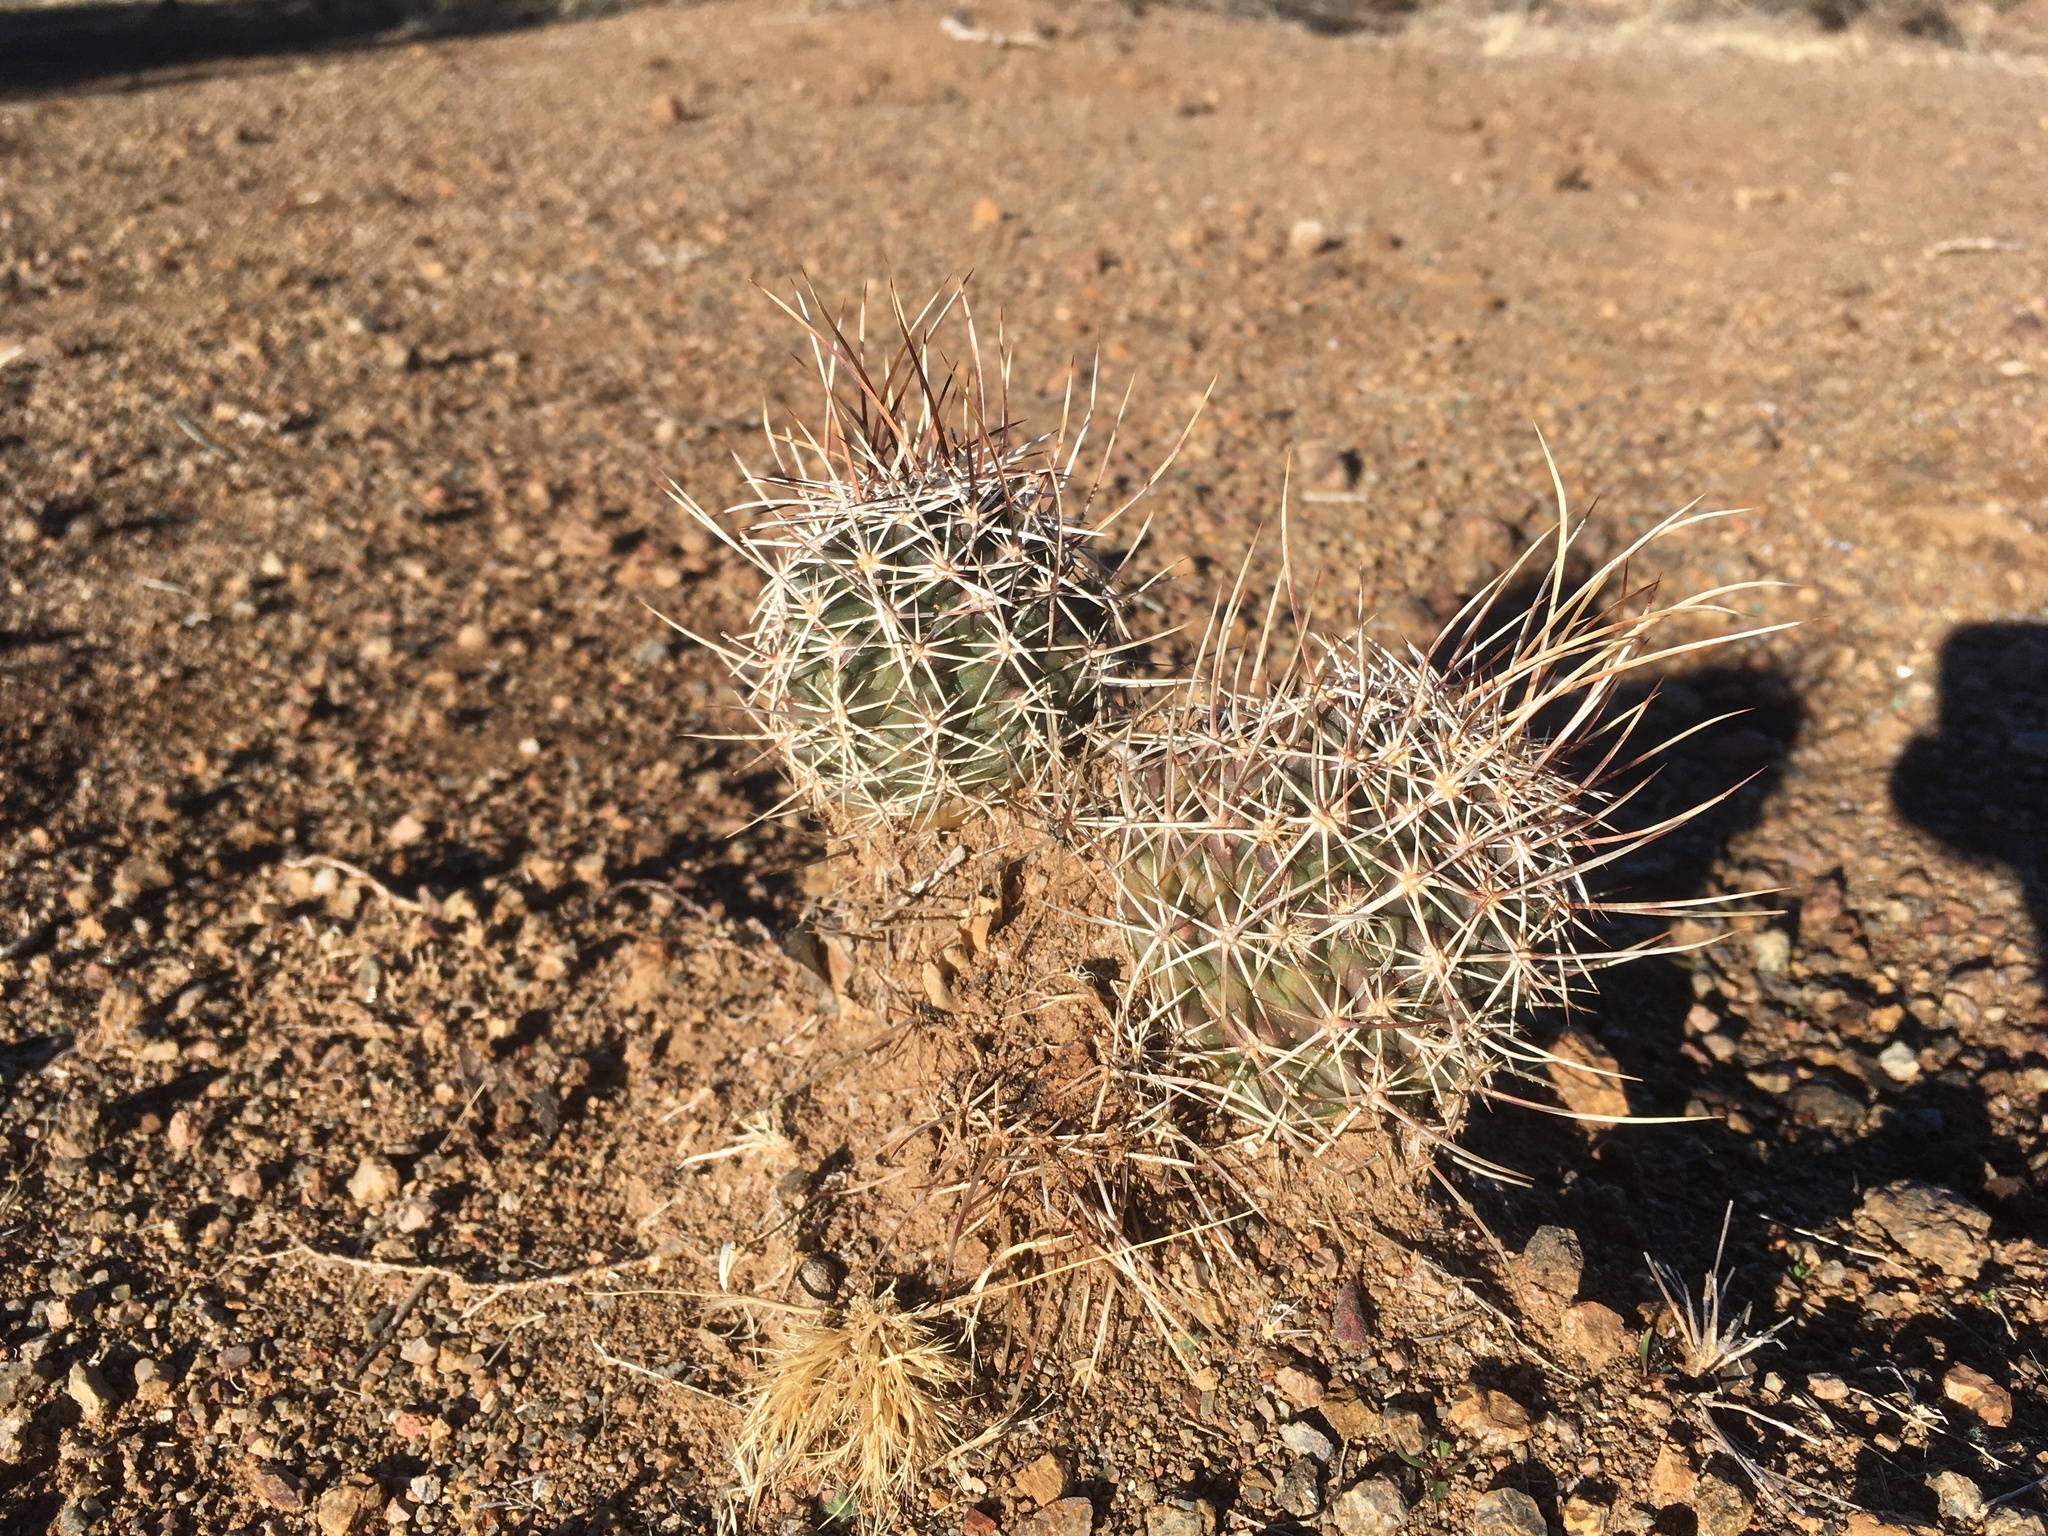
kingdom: Plantae
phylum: Tracheophyta
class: Magnoliopsida
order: Caryophyllales
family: Cactaceae
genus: Echinocereus
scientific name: Echinocereus fendleri
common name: Fendler's hedgehog cactus
